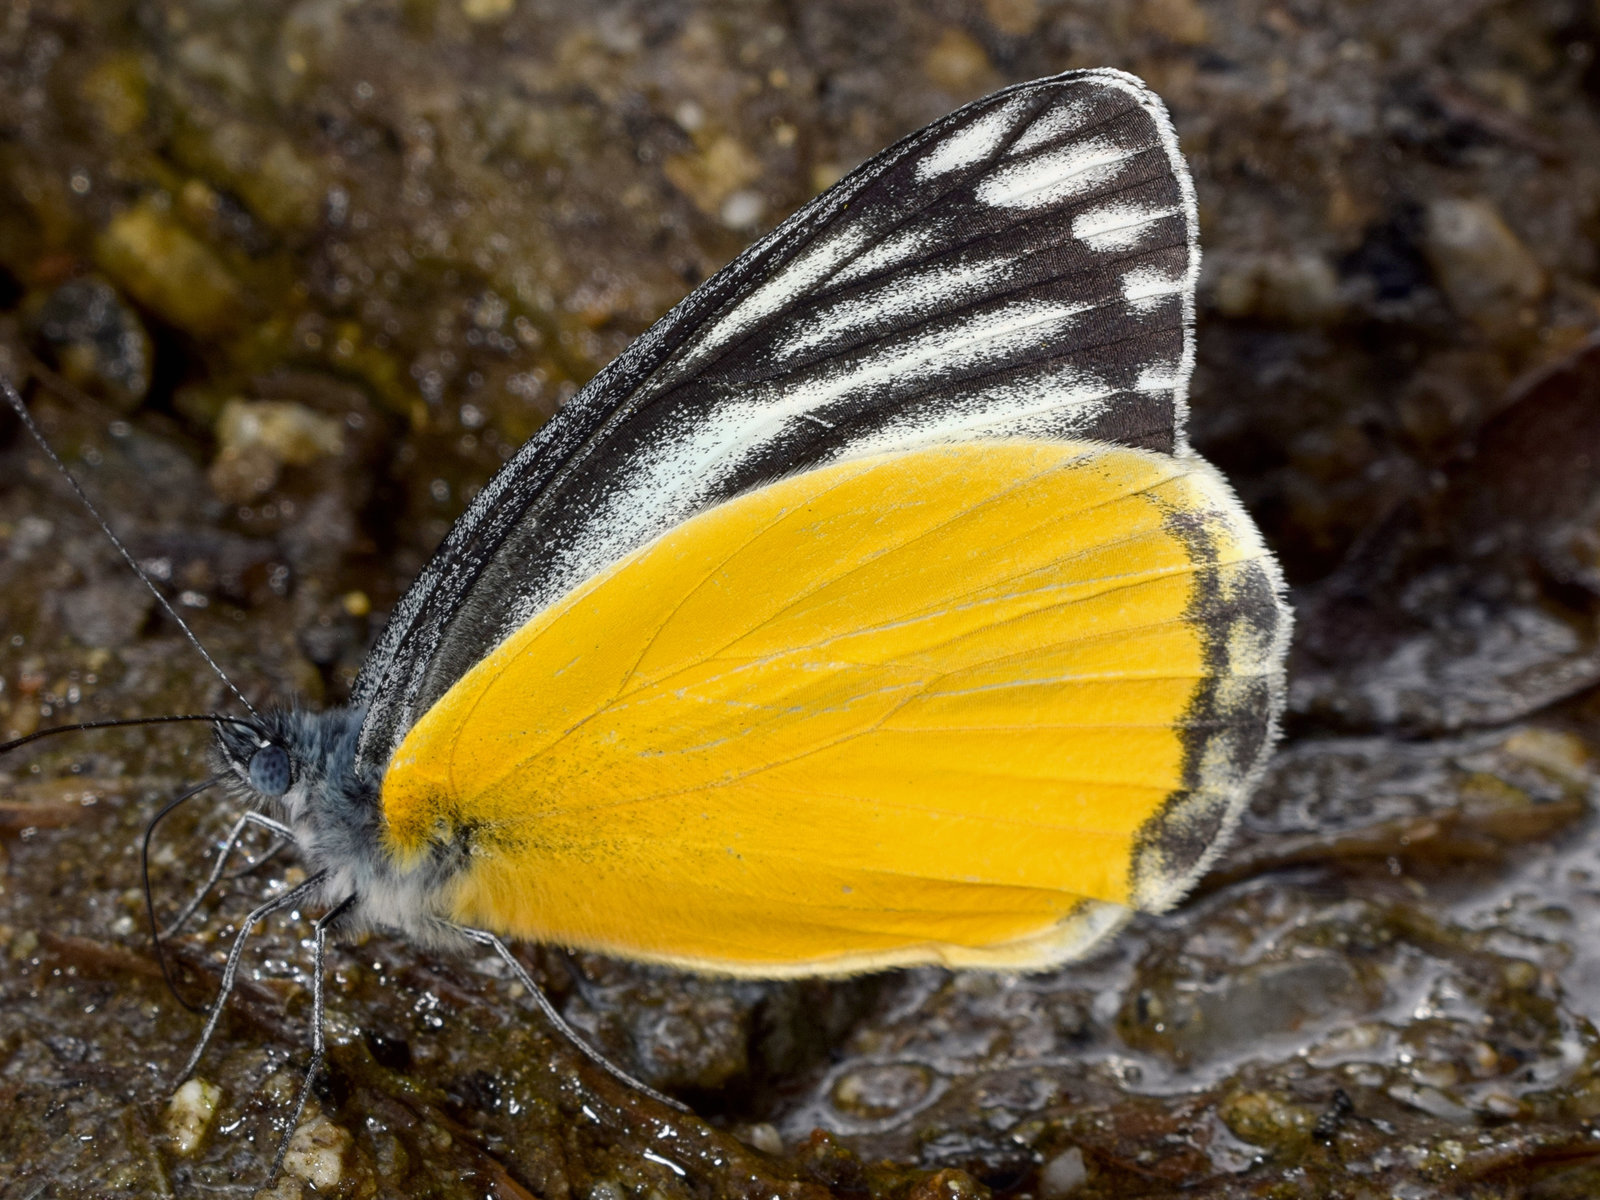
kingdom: Animalia
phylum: Arthropoda
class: Insecta
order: Lepidoptera
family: Pieridae
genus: Delias
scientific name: Delias agostina
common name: Yellow jezebel
